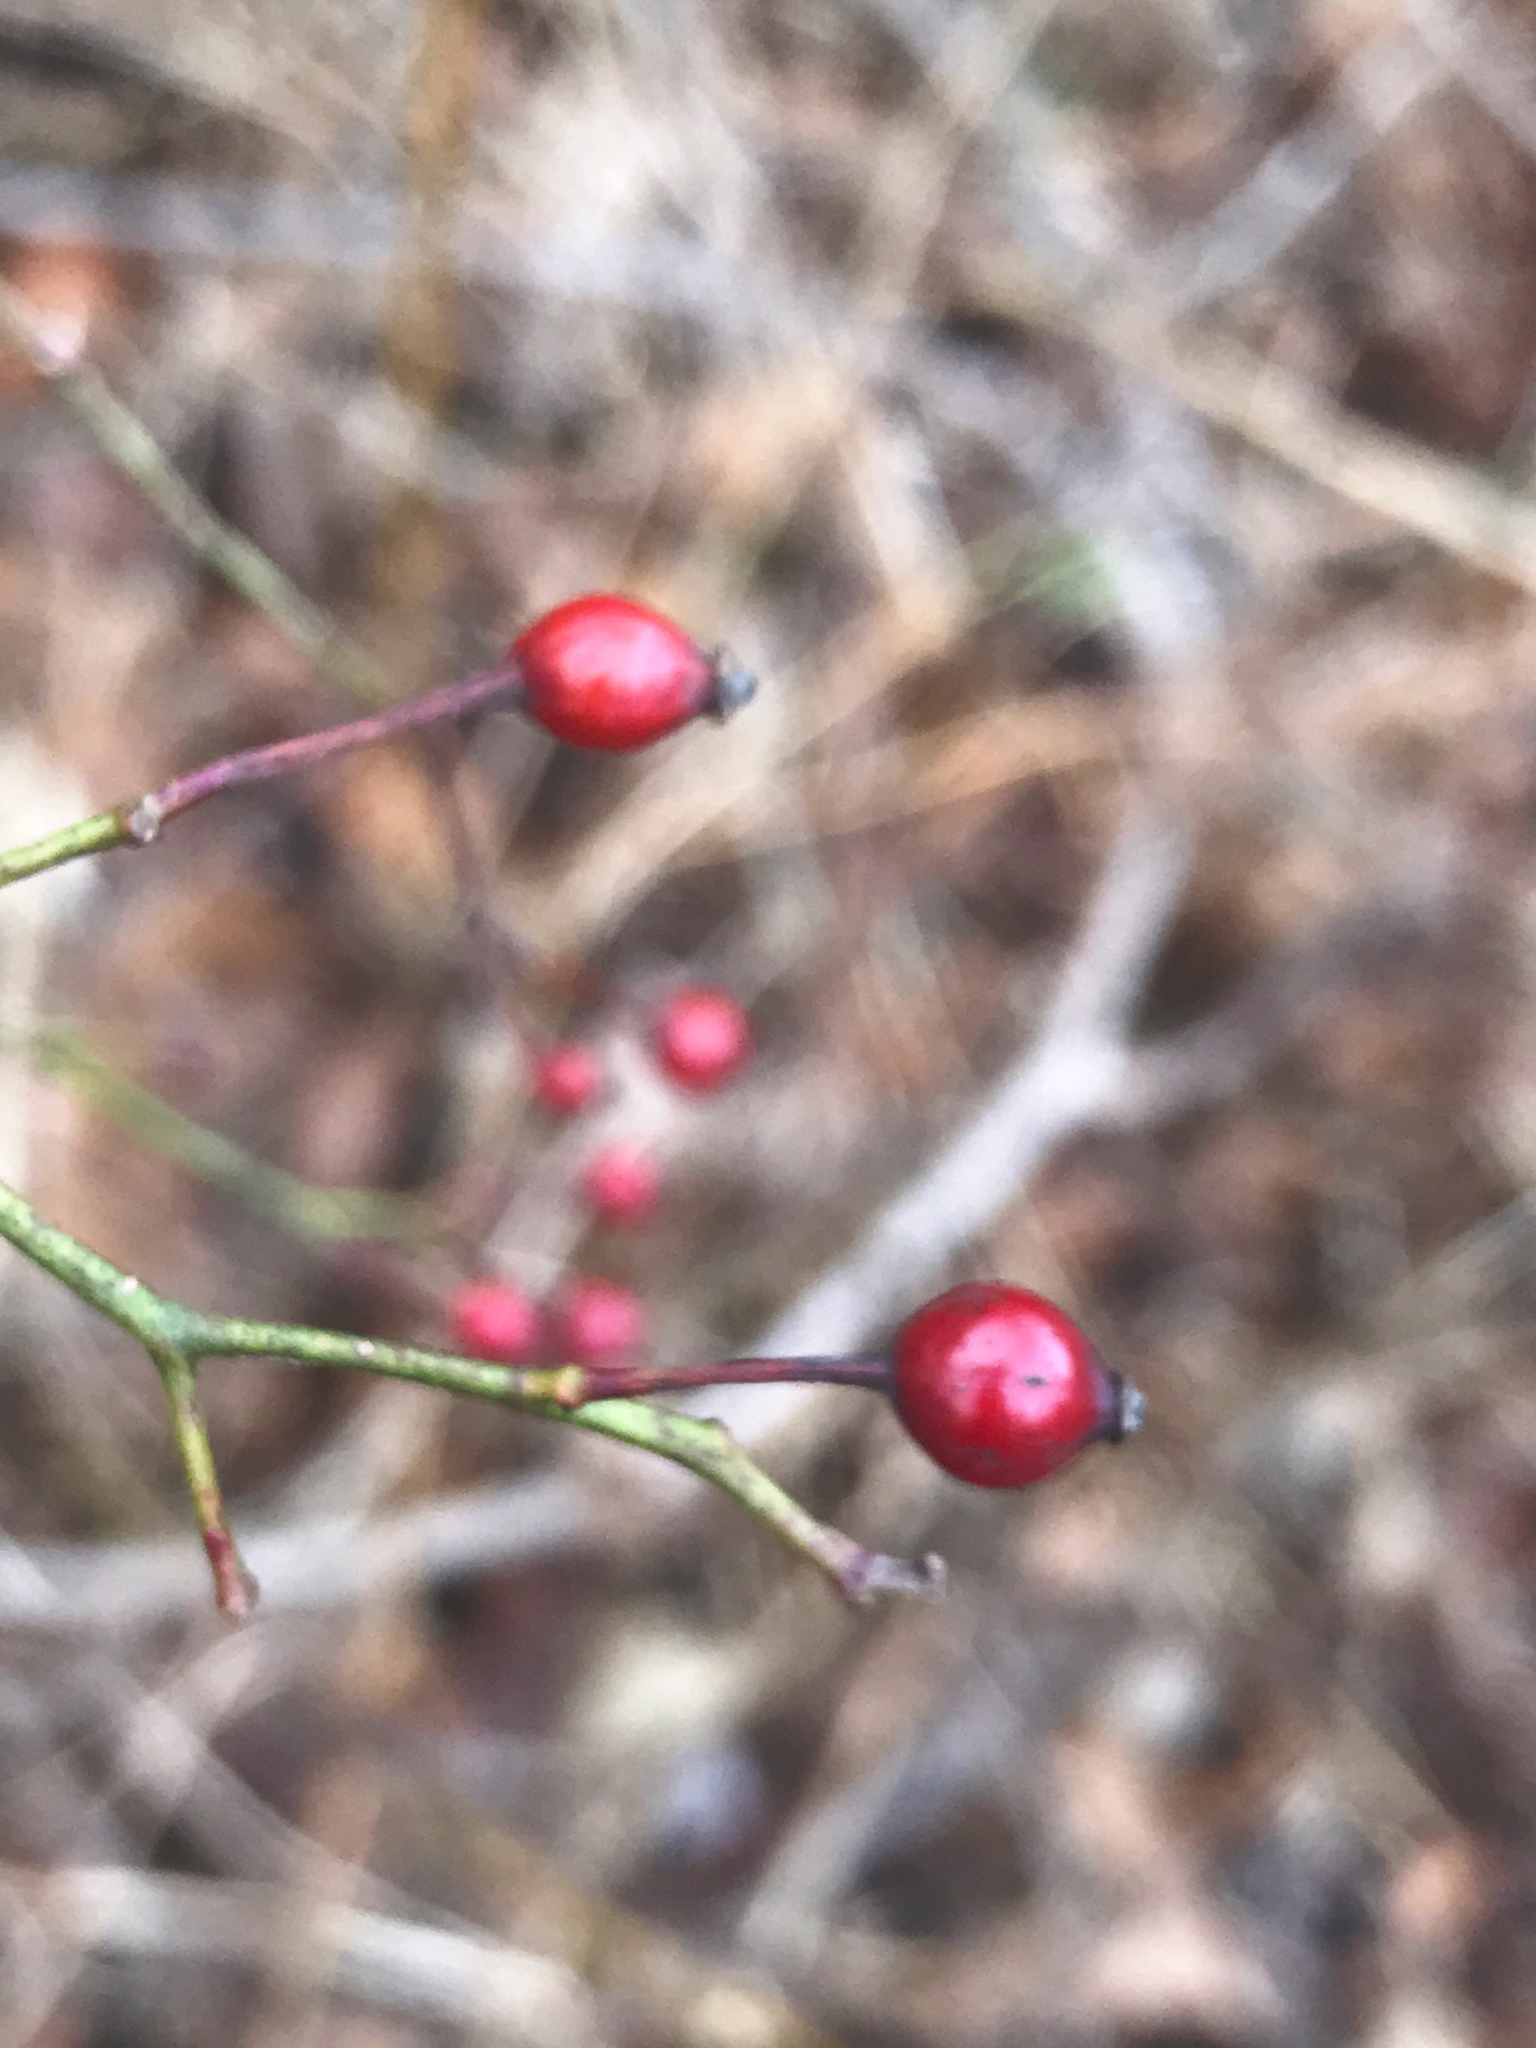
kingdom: Plantae
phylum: Tracheophyta
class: Magnoliopsida
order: Rosales
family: Rosaceae
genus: Rosa
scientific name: Rosa multiflora
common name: Multiflora rose
